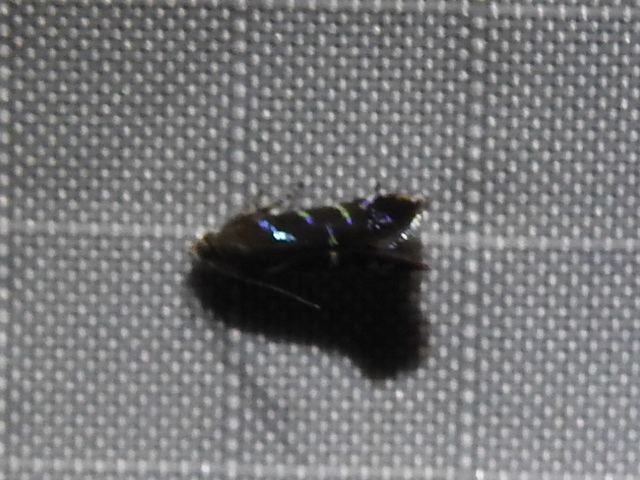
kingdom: Animalia
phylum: Arthropoda
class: Insecta
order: Lepidoptera
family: Gelechiidae
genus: Strobisia
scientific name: Strobisia proserpinella
